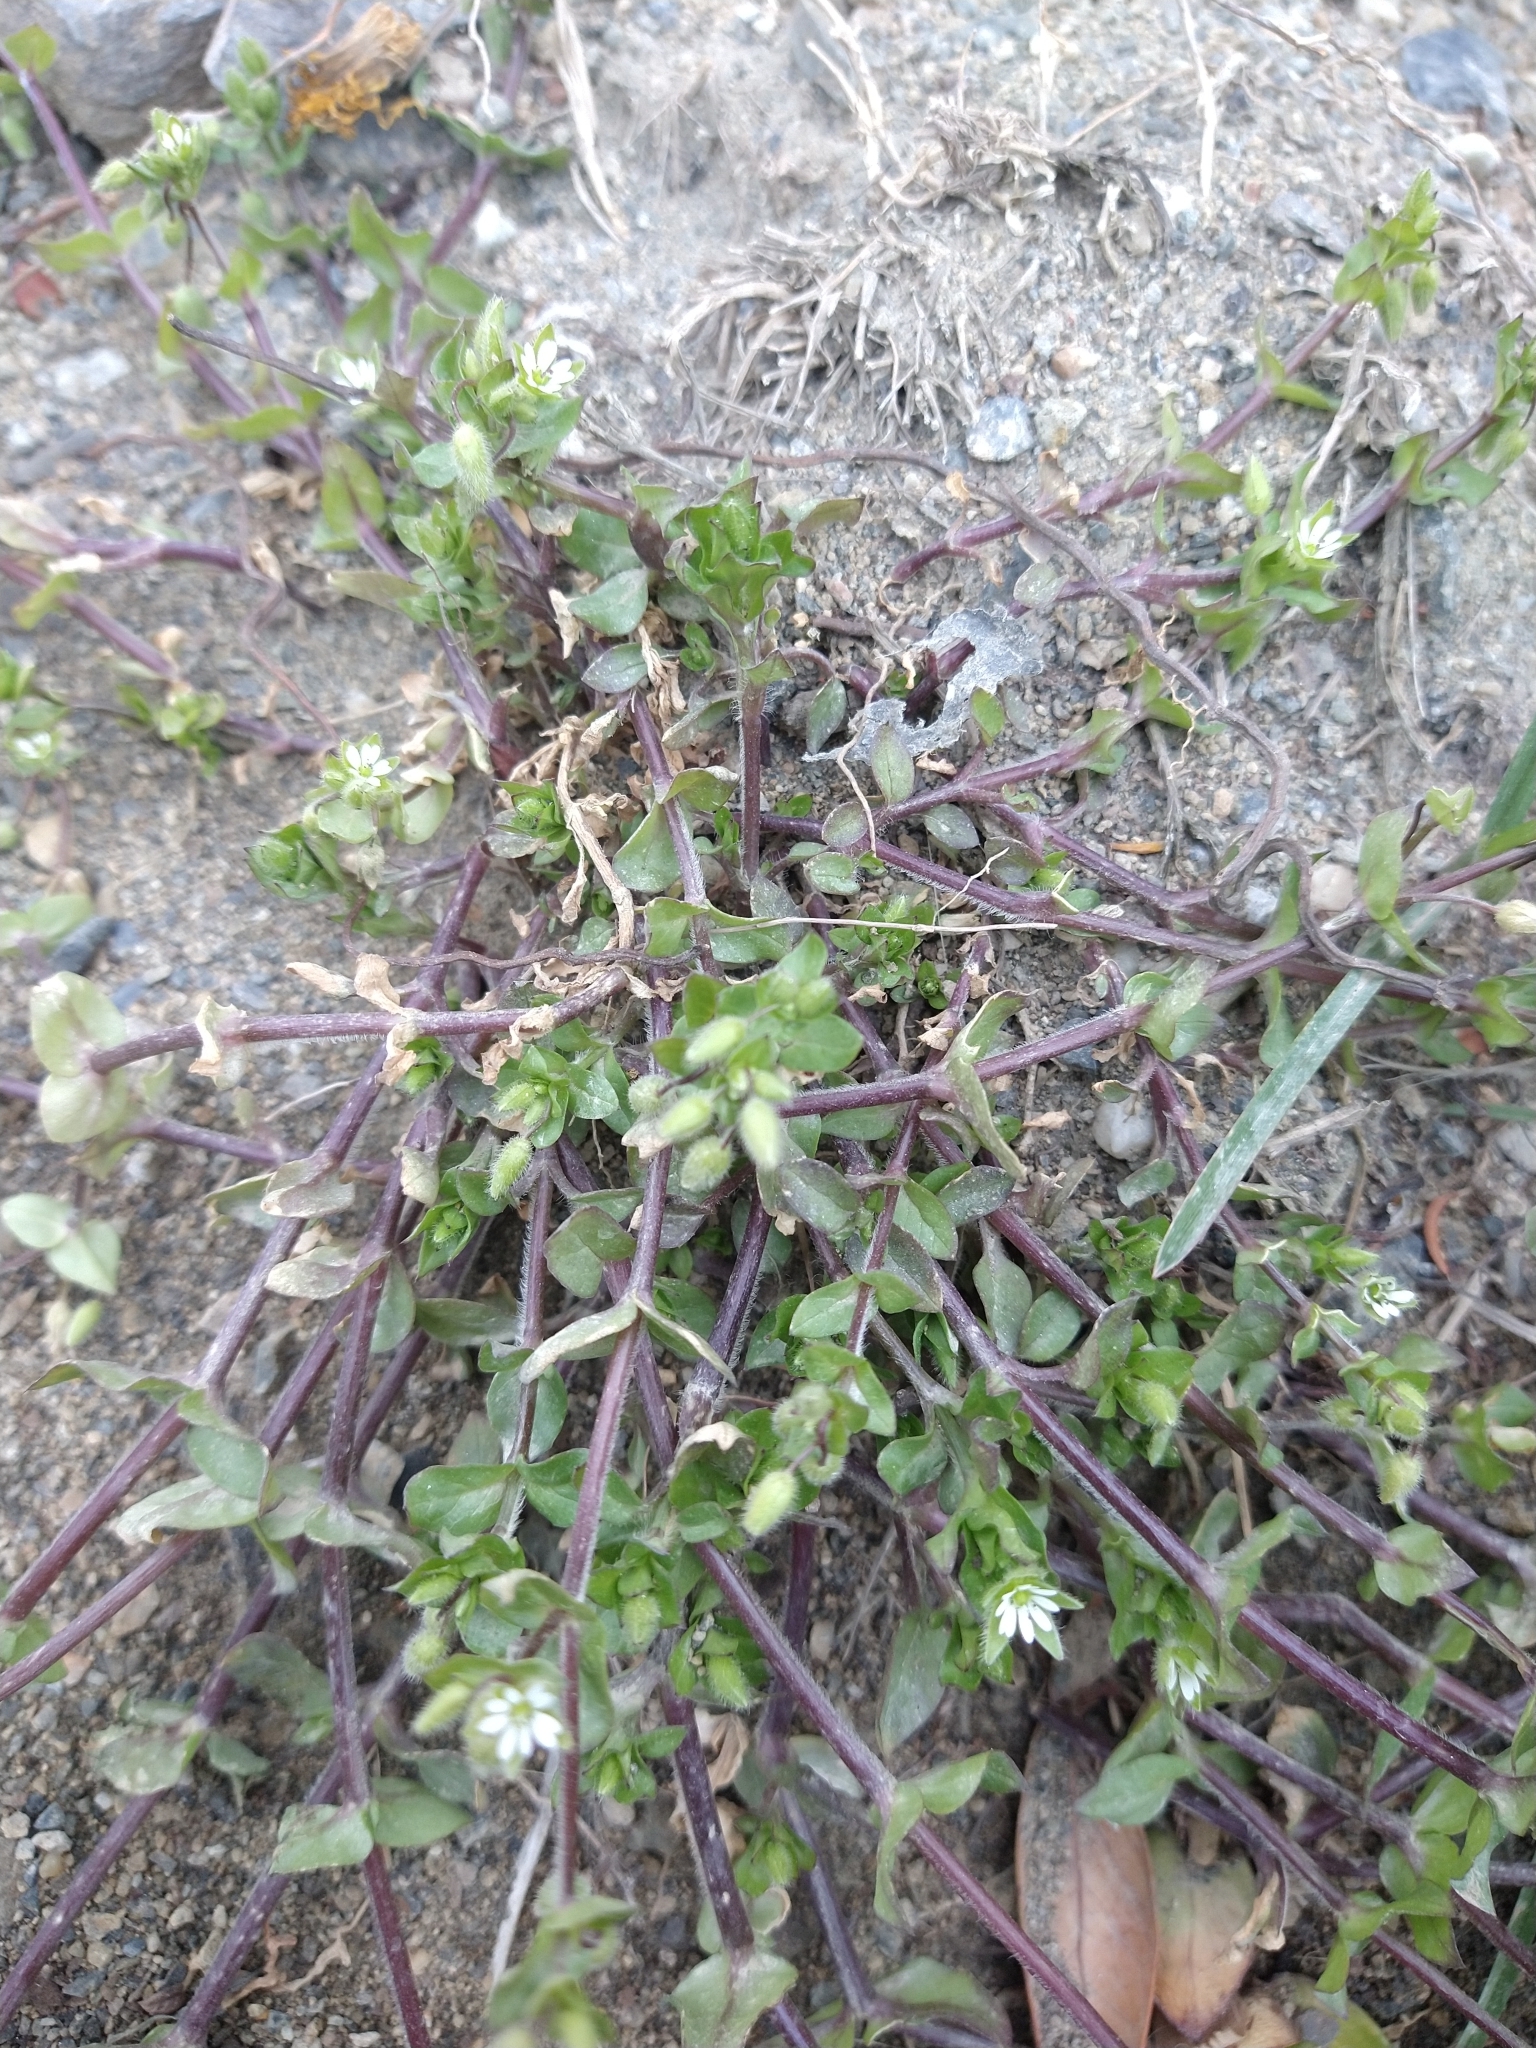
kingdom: Plantae
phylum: Tracheophyta
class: Magnoliopsida
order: Caryophyllales
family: Caryophyllaceae
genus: Stellaria
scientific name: Stellaria media
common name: Common chickweed
